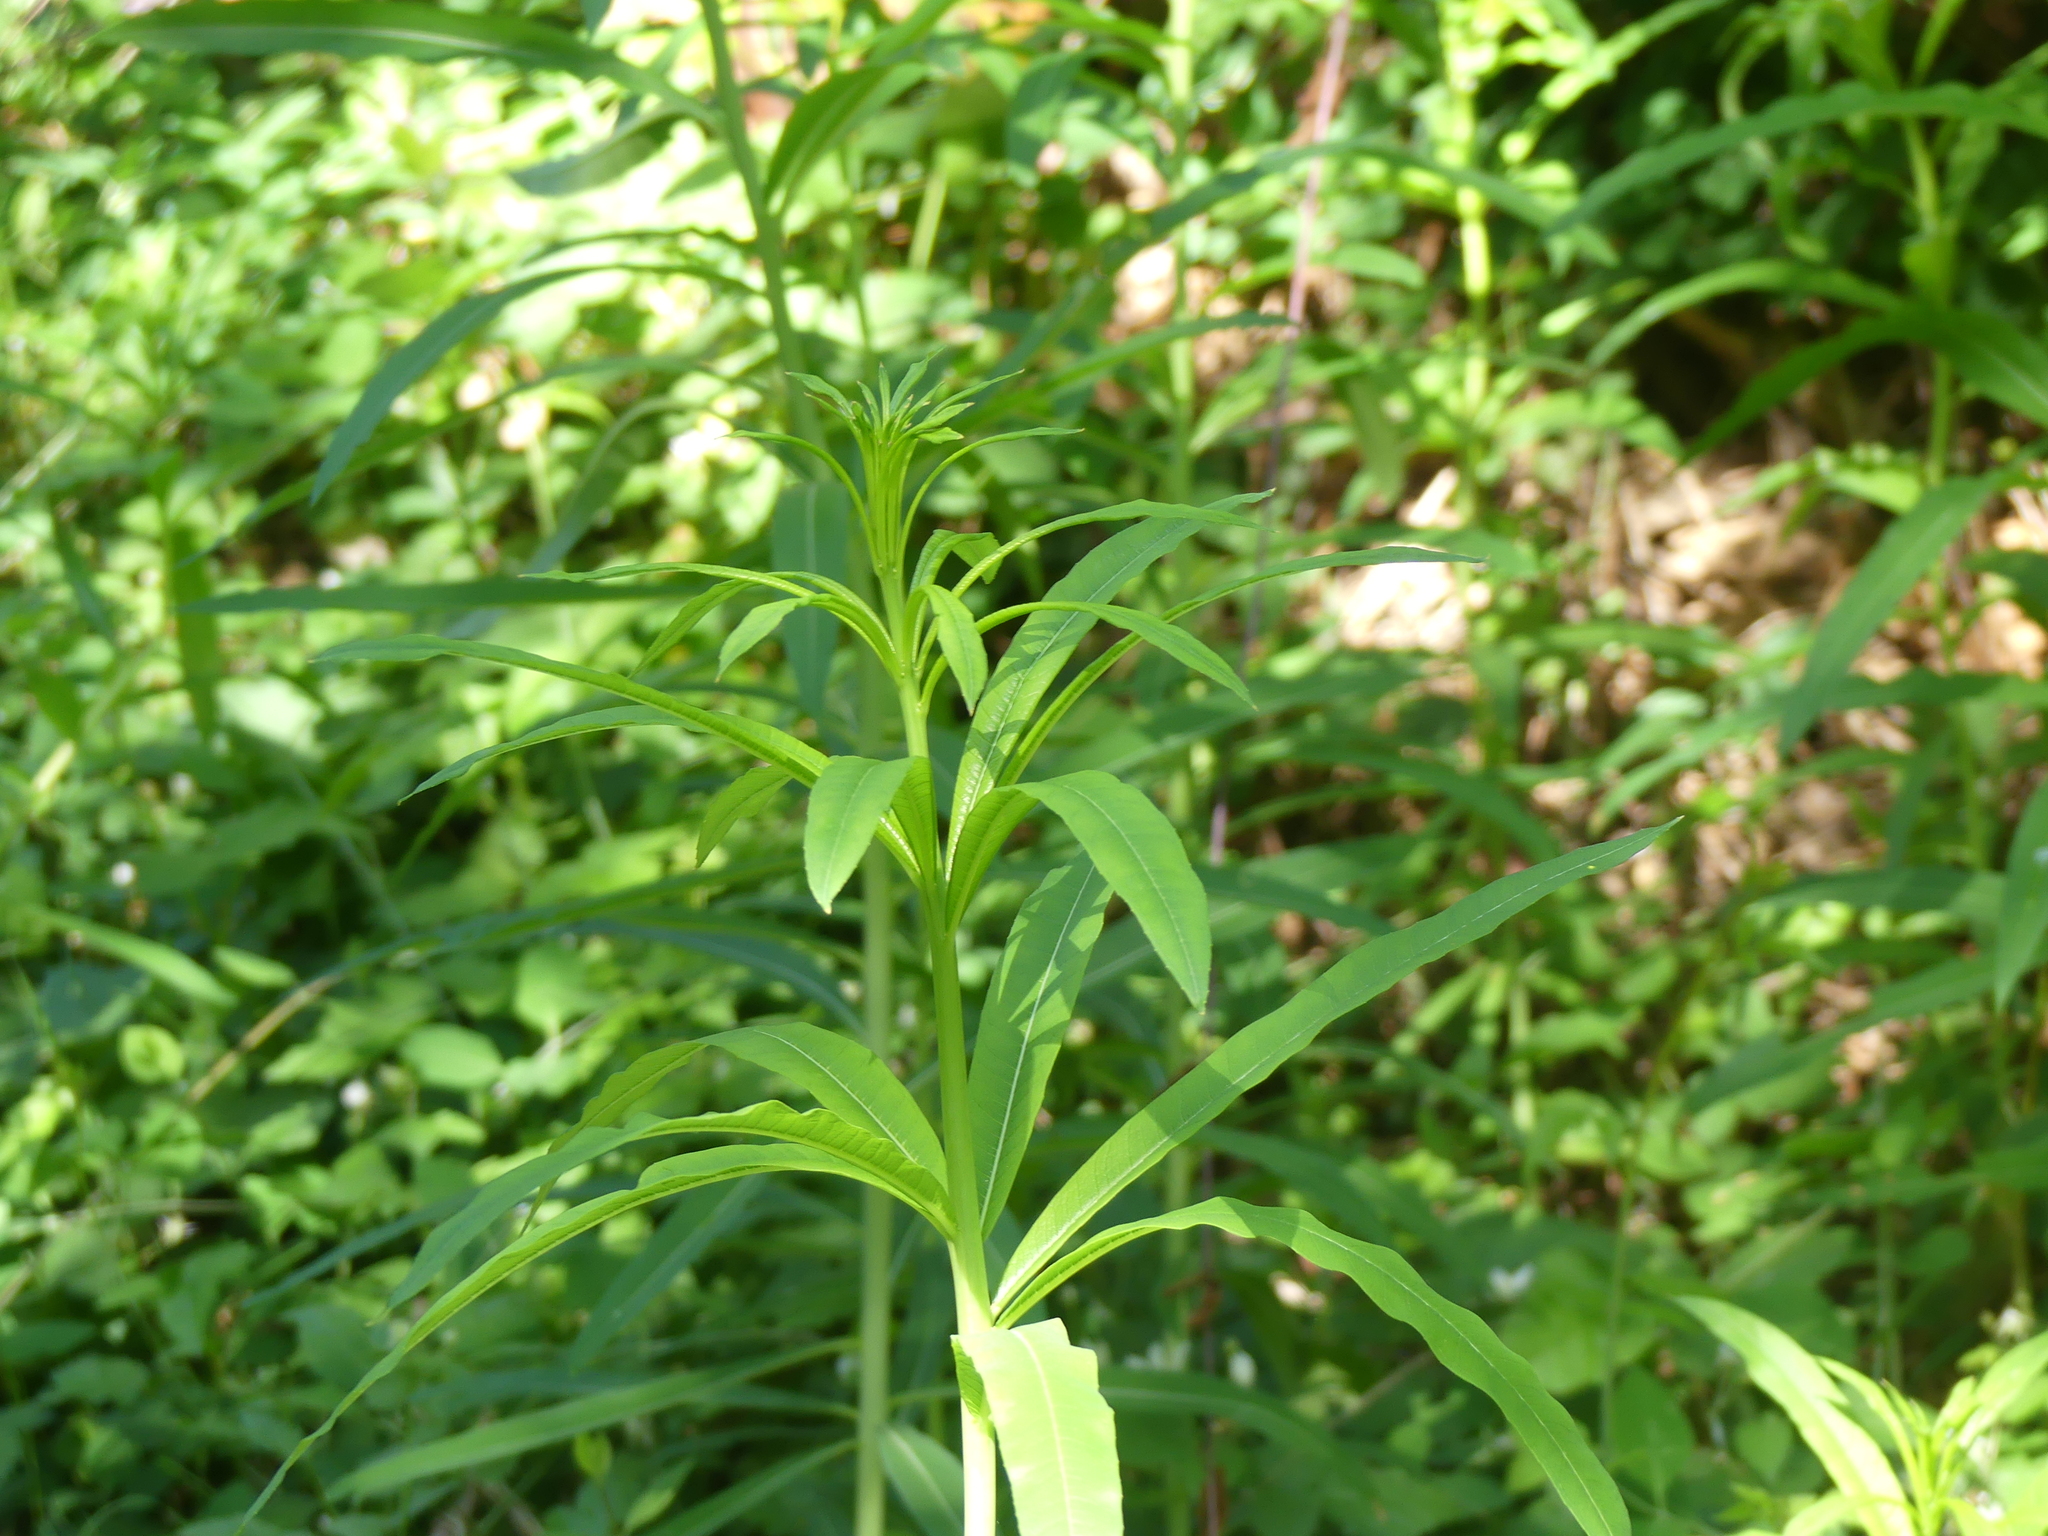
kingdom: Plantae
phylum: Tracheophyta
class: Magnoliopsida
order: Myrtales
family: Onagraceae
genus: Chamaenerion
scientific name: Chamaenerion angustifolium
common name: Fireweed
